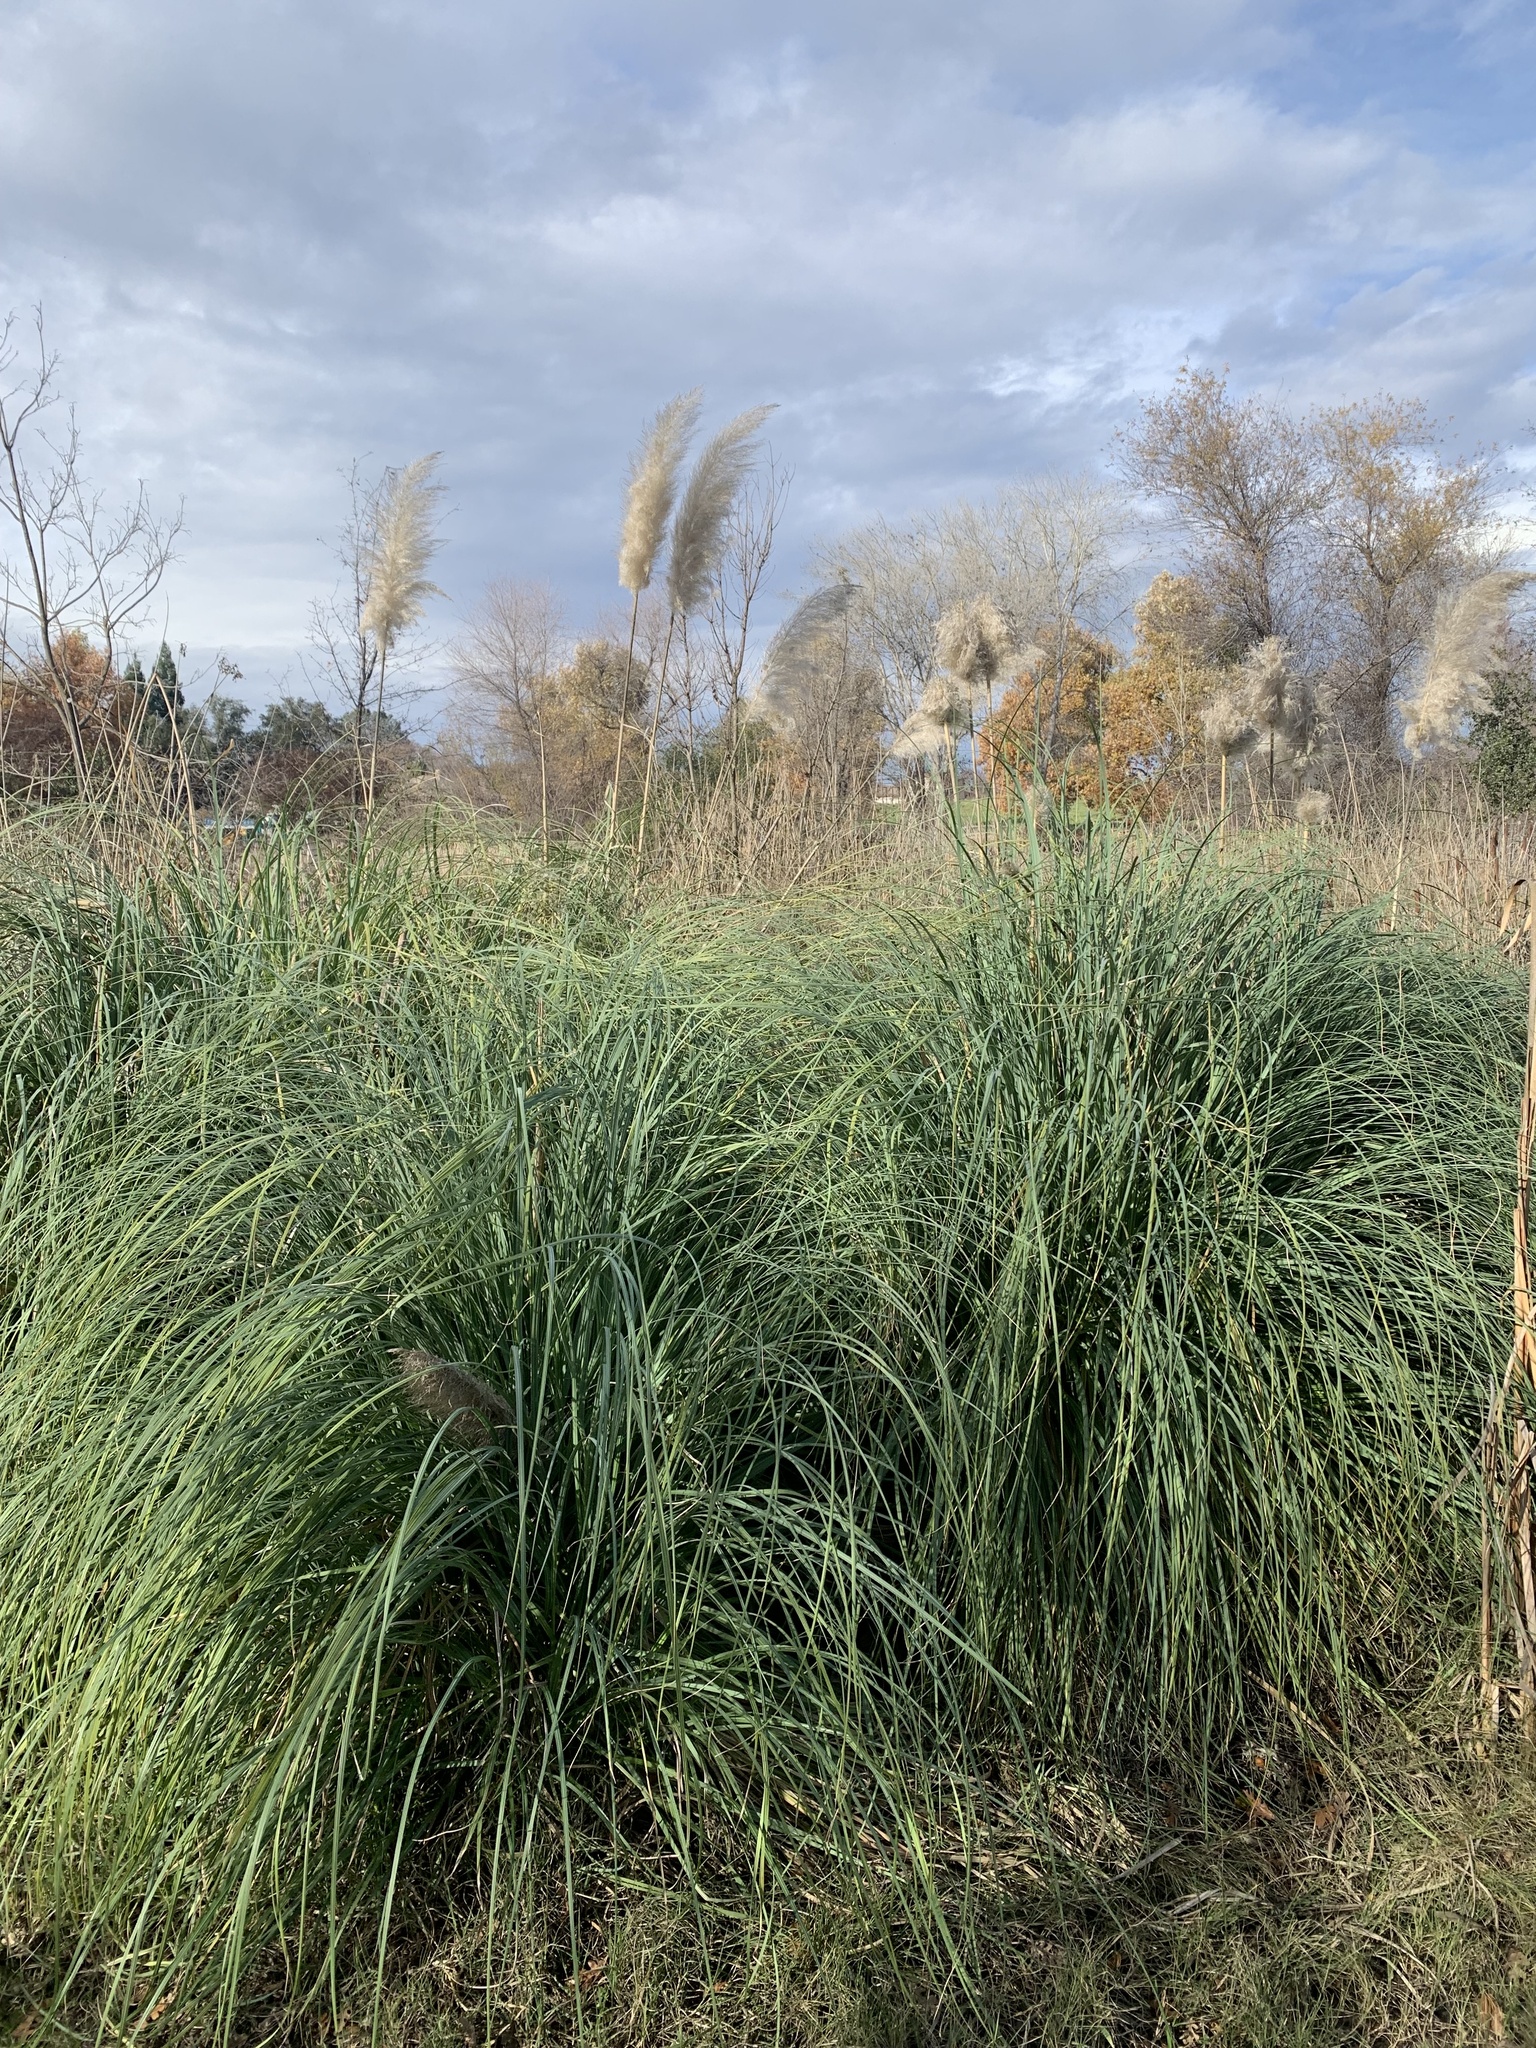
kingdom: Plantae
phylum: Tracheophyta
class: Liliopsida
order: Poales
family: Poaceae
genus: Cortaderia
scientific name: Cortaderia selloana
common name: Uruguayan pampas grass
